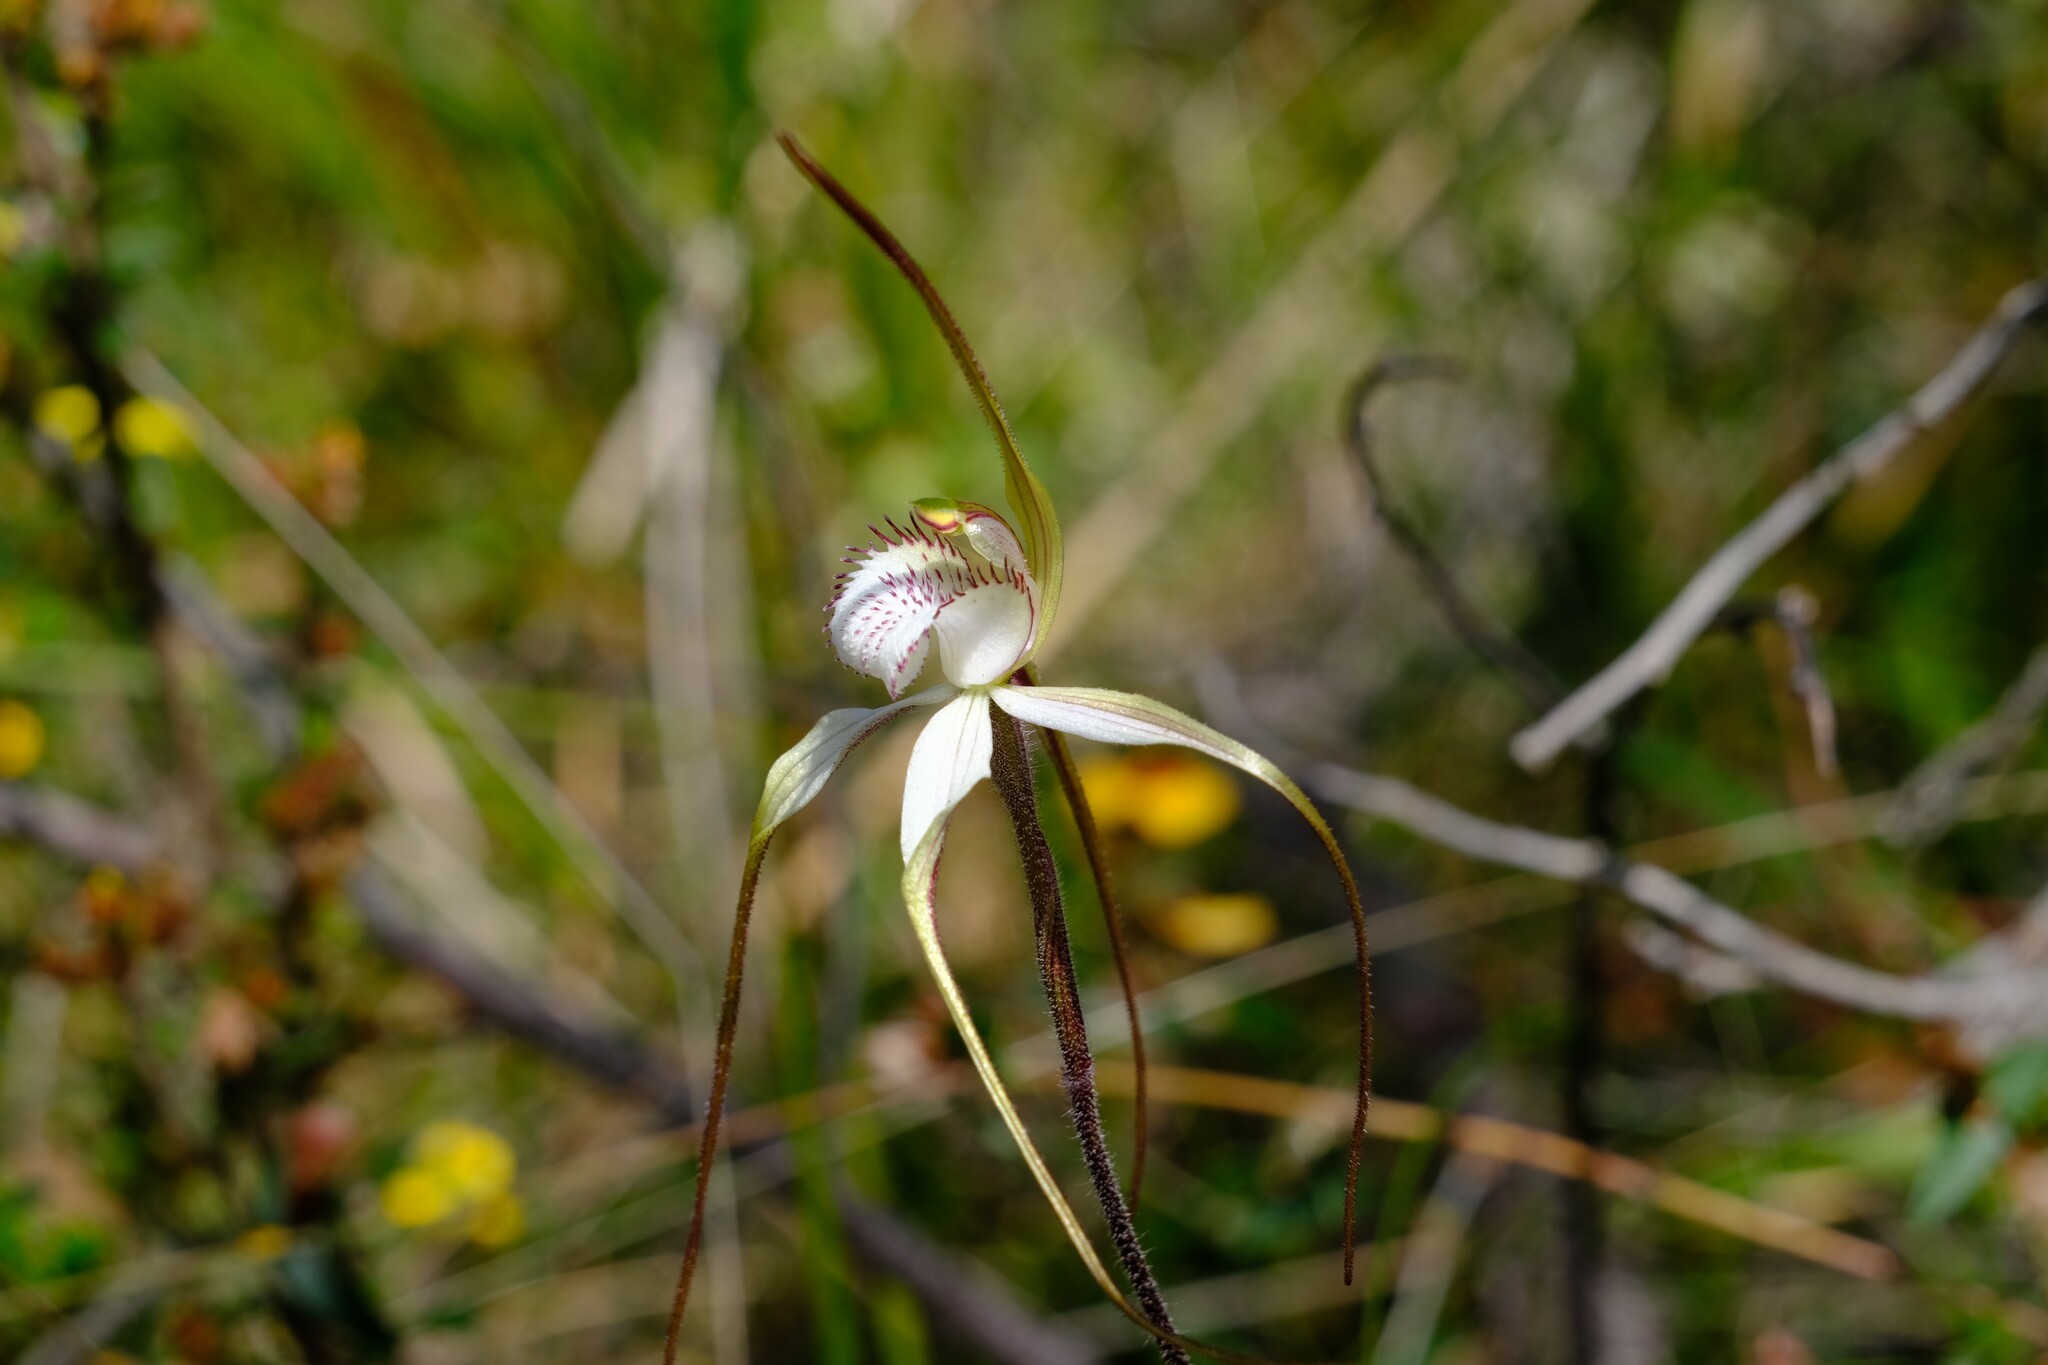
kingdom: Plantae
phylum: Tracheophyta
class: Liliopsida
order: Asparagales
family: Orchidaceae
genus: Caladenia
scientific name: Caladenia venusta
